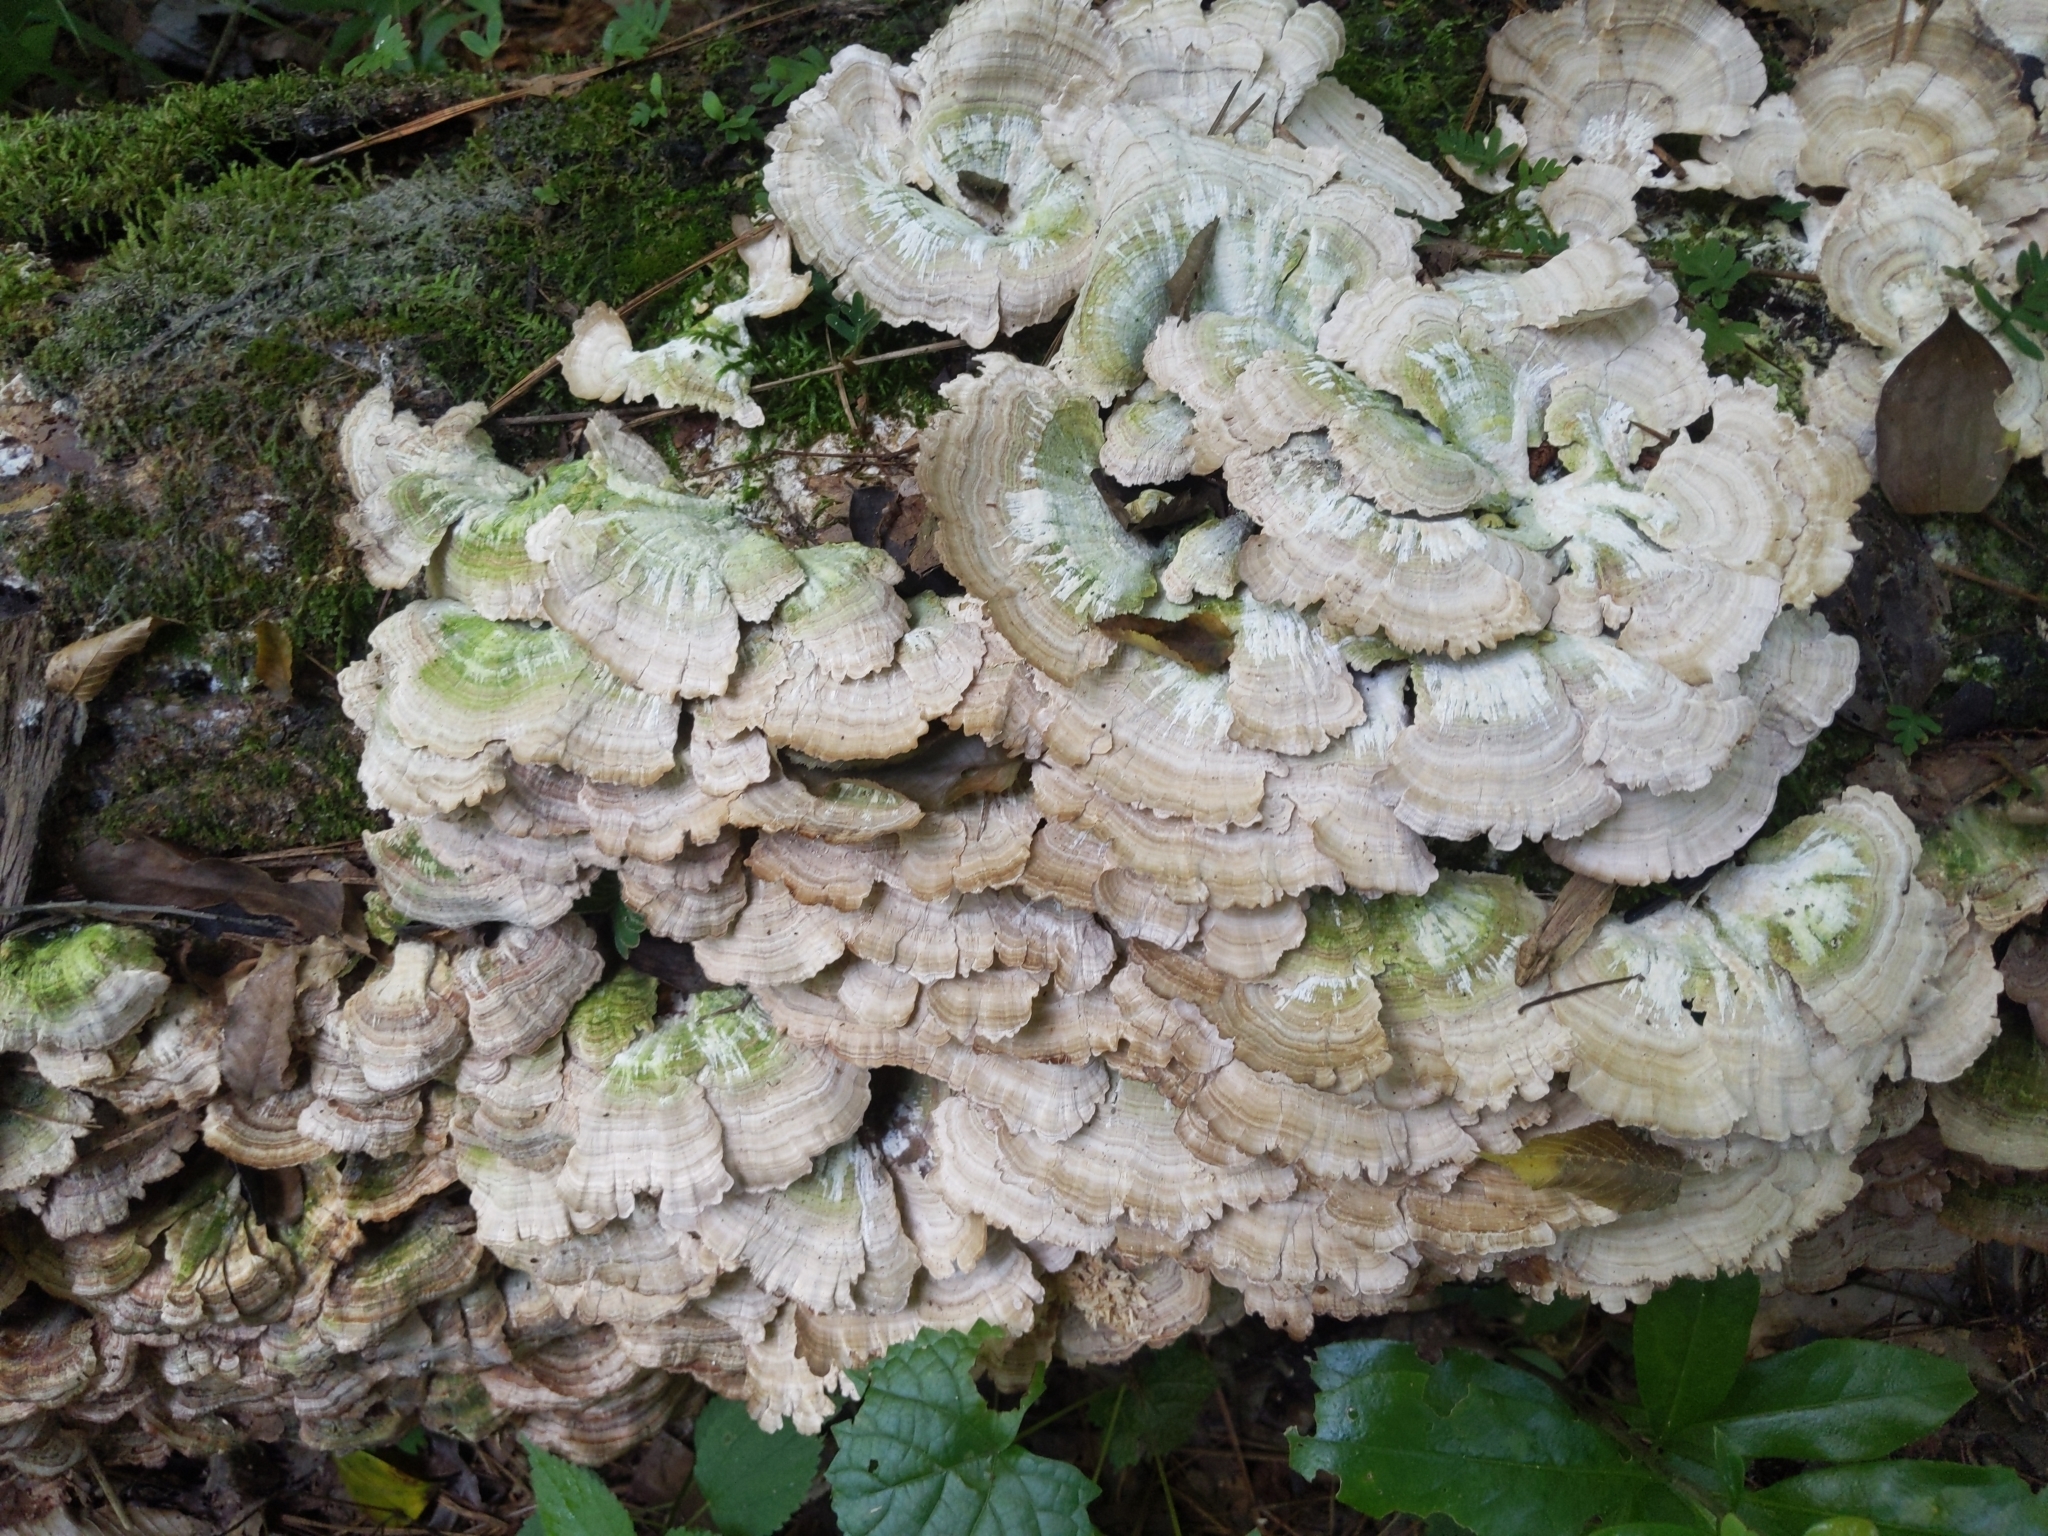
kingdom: Fungi
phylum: Basidiomycota
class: Agaricomycetes
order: Hymenochaetales
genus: Trichaptum
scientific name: Trichaptum biforme
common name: Violet-toothed polypore
